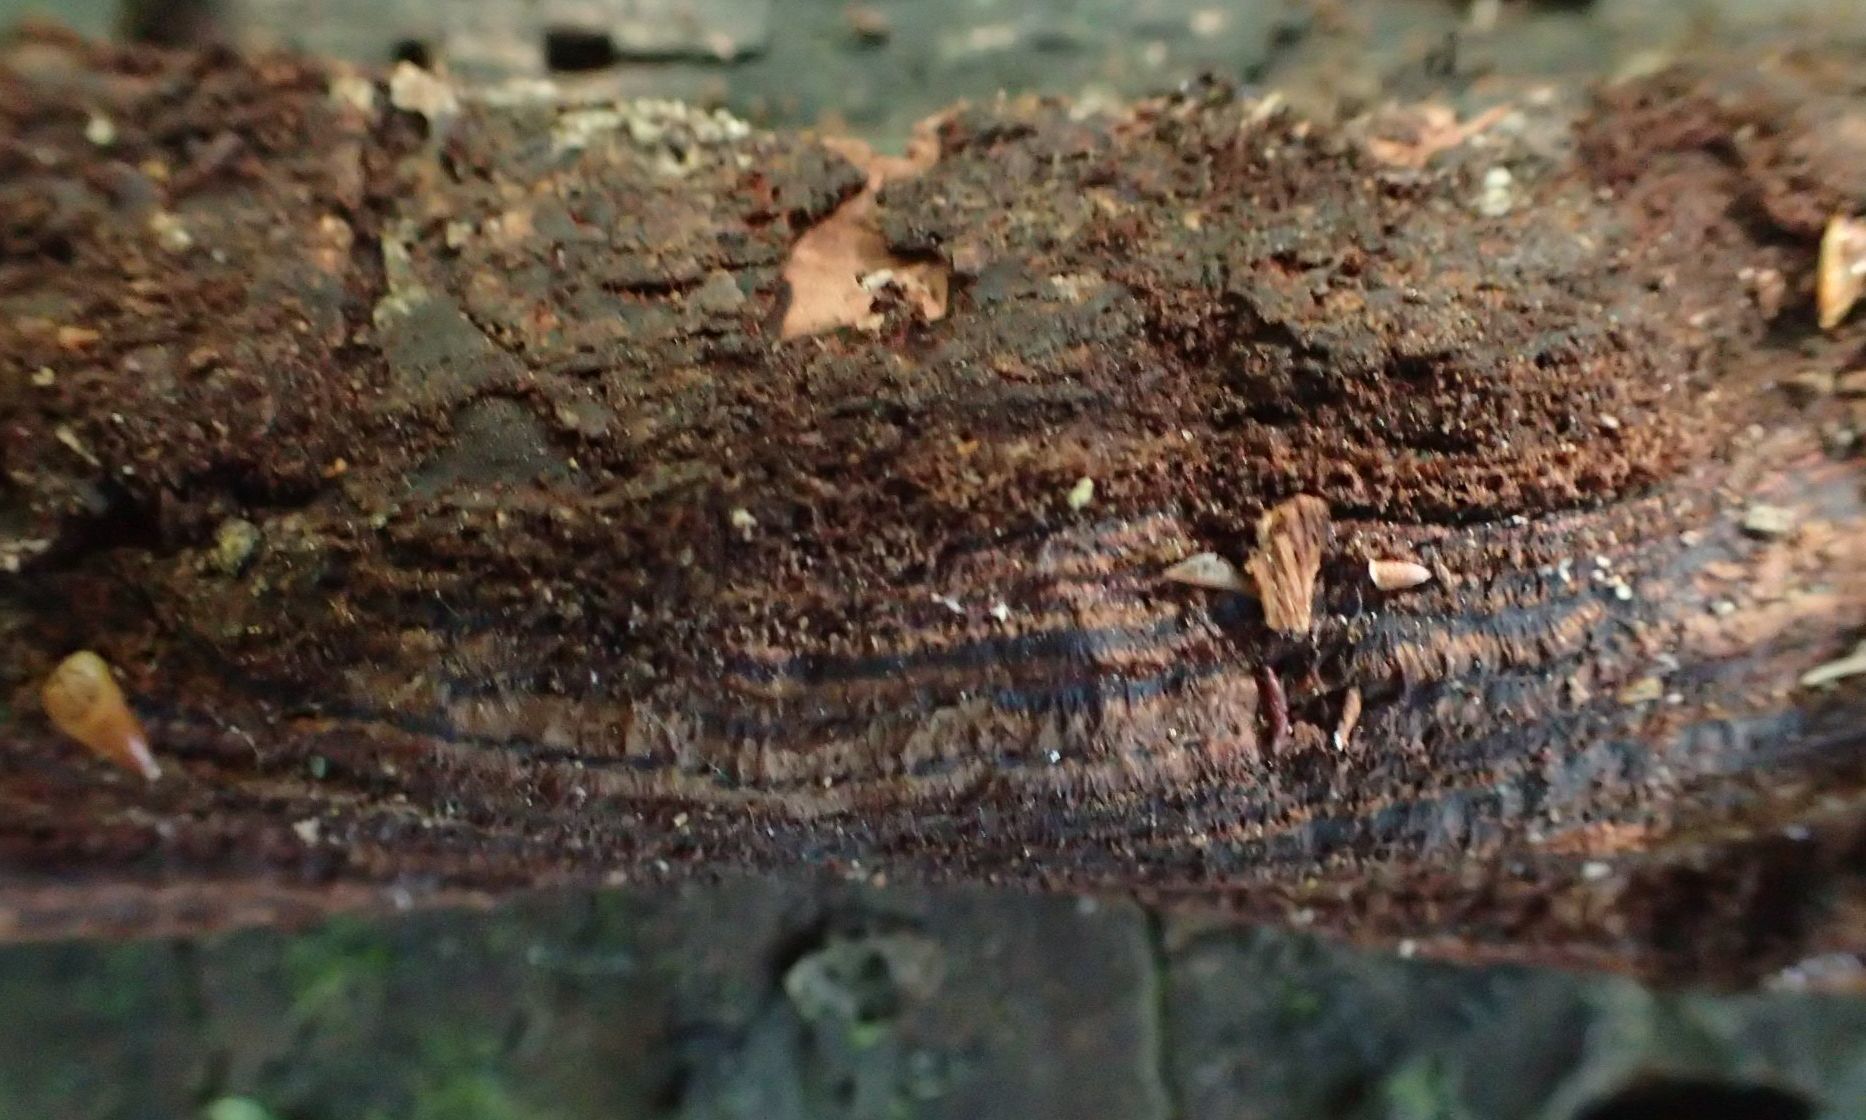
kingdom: Fungi
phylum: Basidiomycota
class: Agaricomycetes
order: Polyporales
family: Steccherinaceae
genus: Metuloidea
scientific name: Metuloidea rhinocephala
